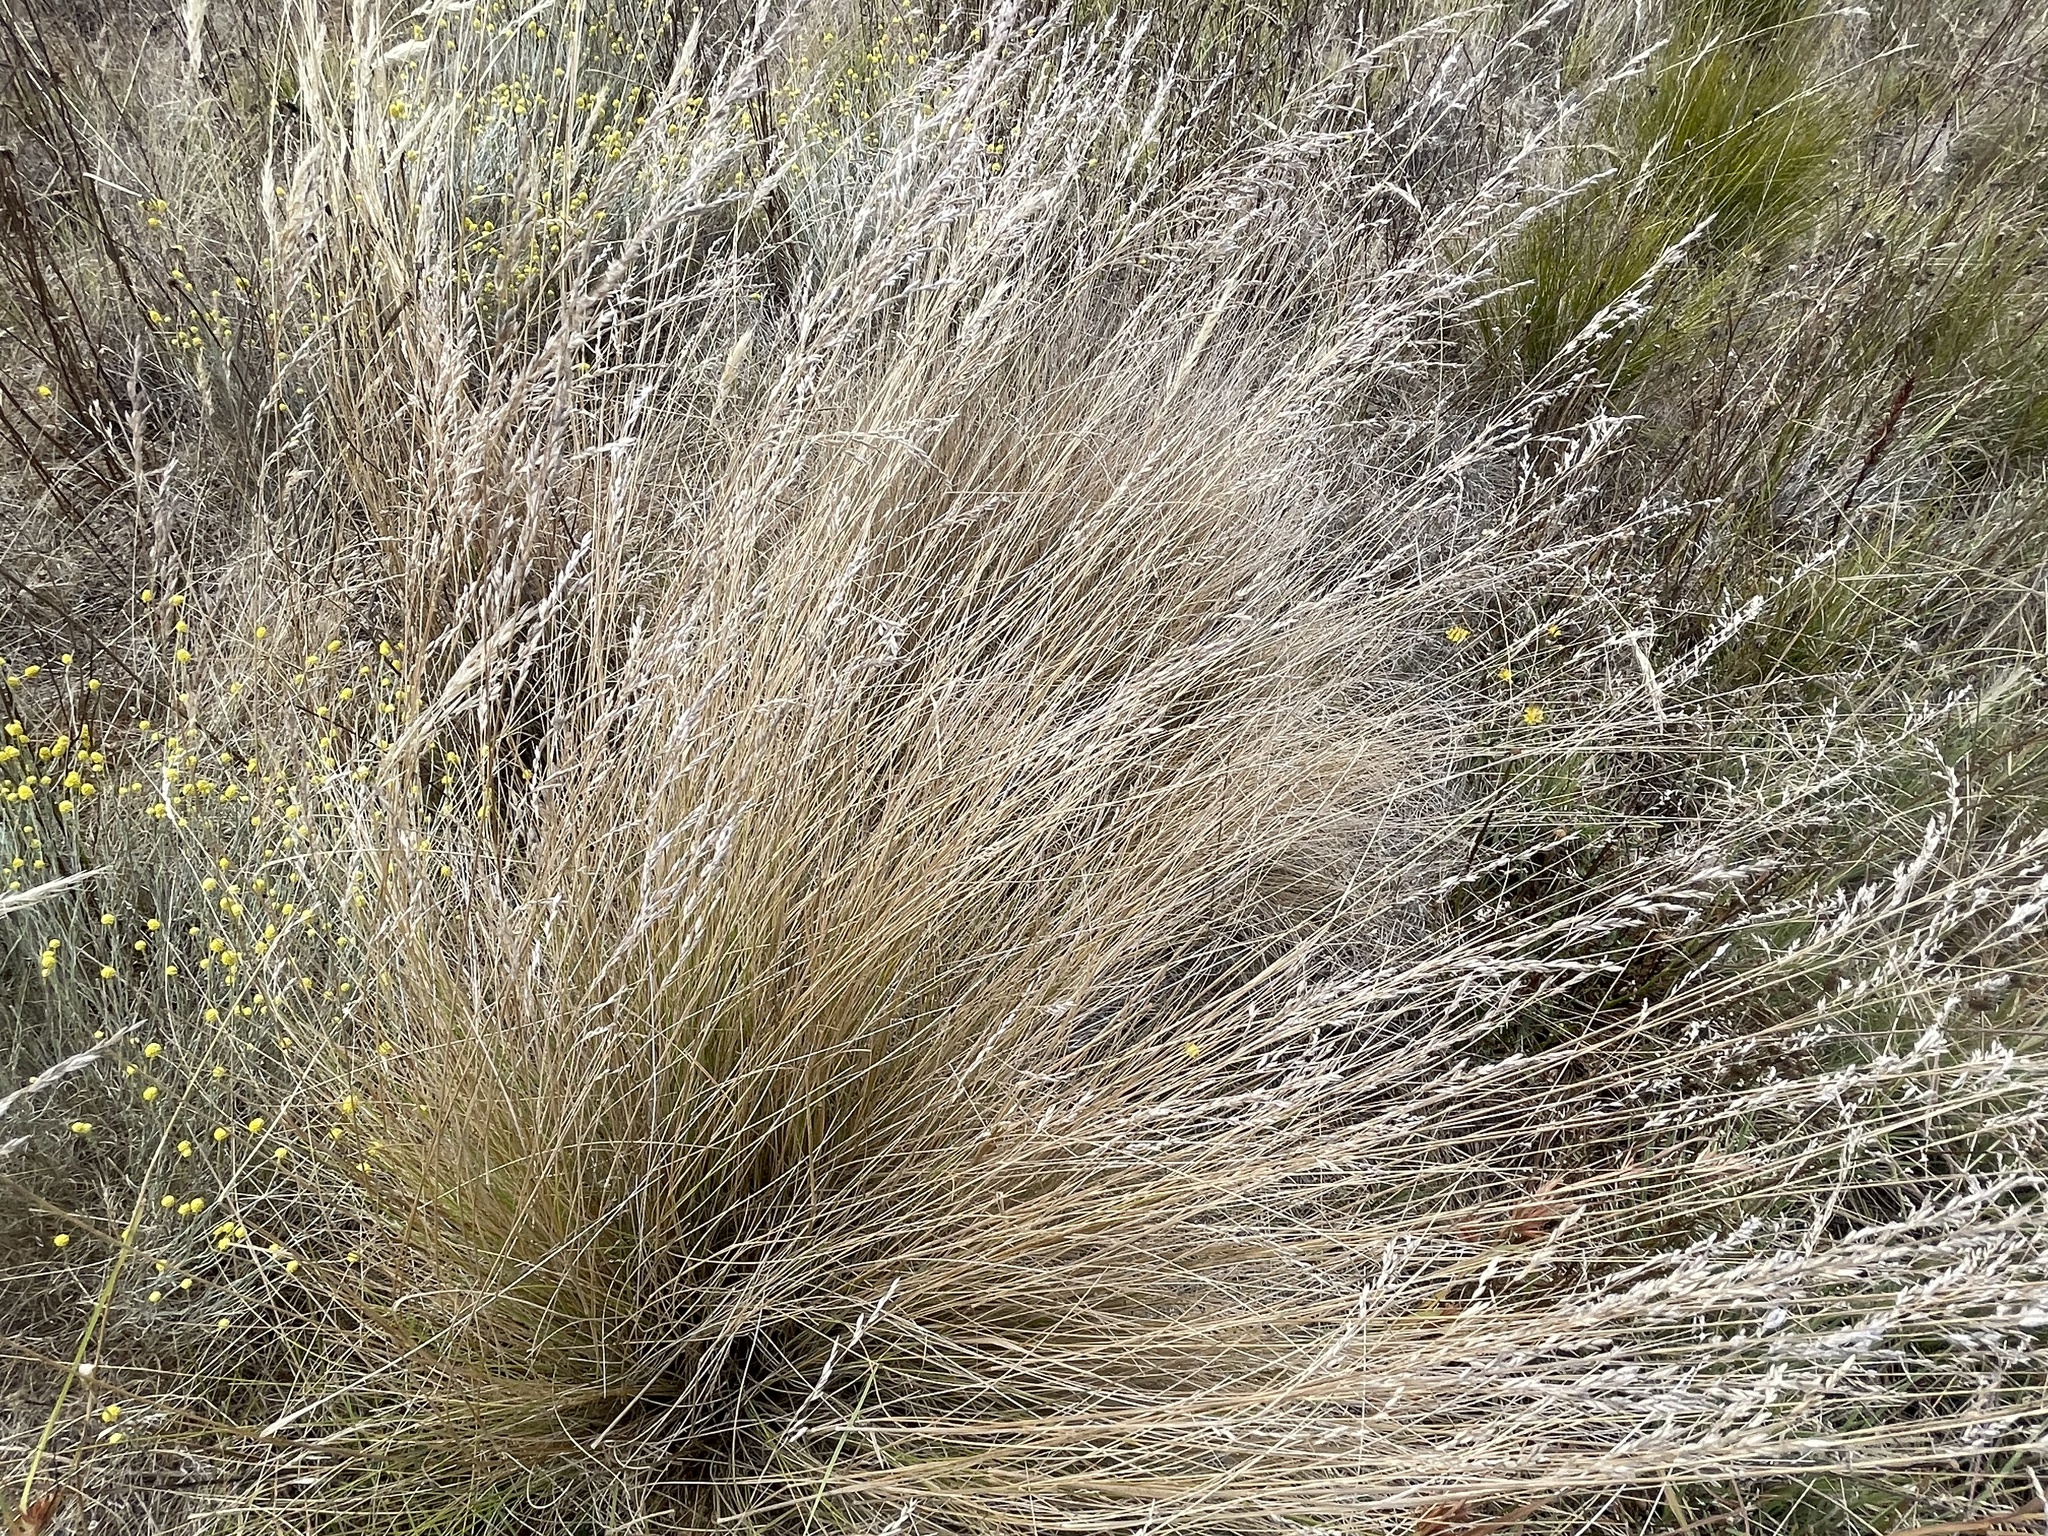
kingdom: Plantae
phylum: Tracheophyta
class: Liliopsida
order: Poales
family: Poaceae
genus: Poa
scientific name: Poa labillardierei
